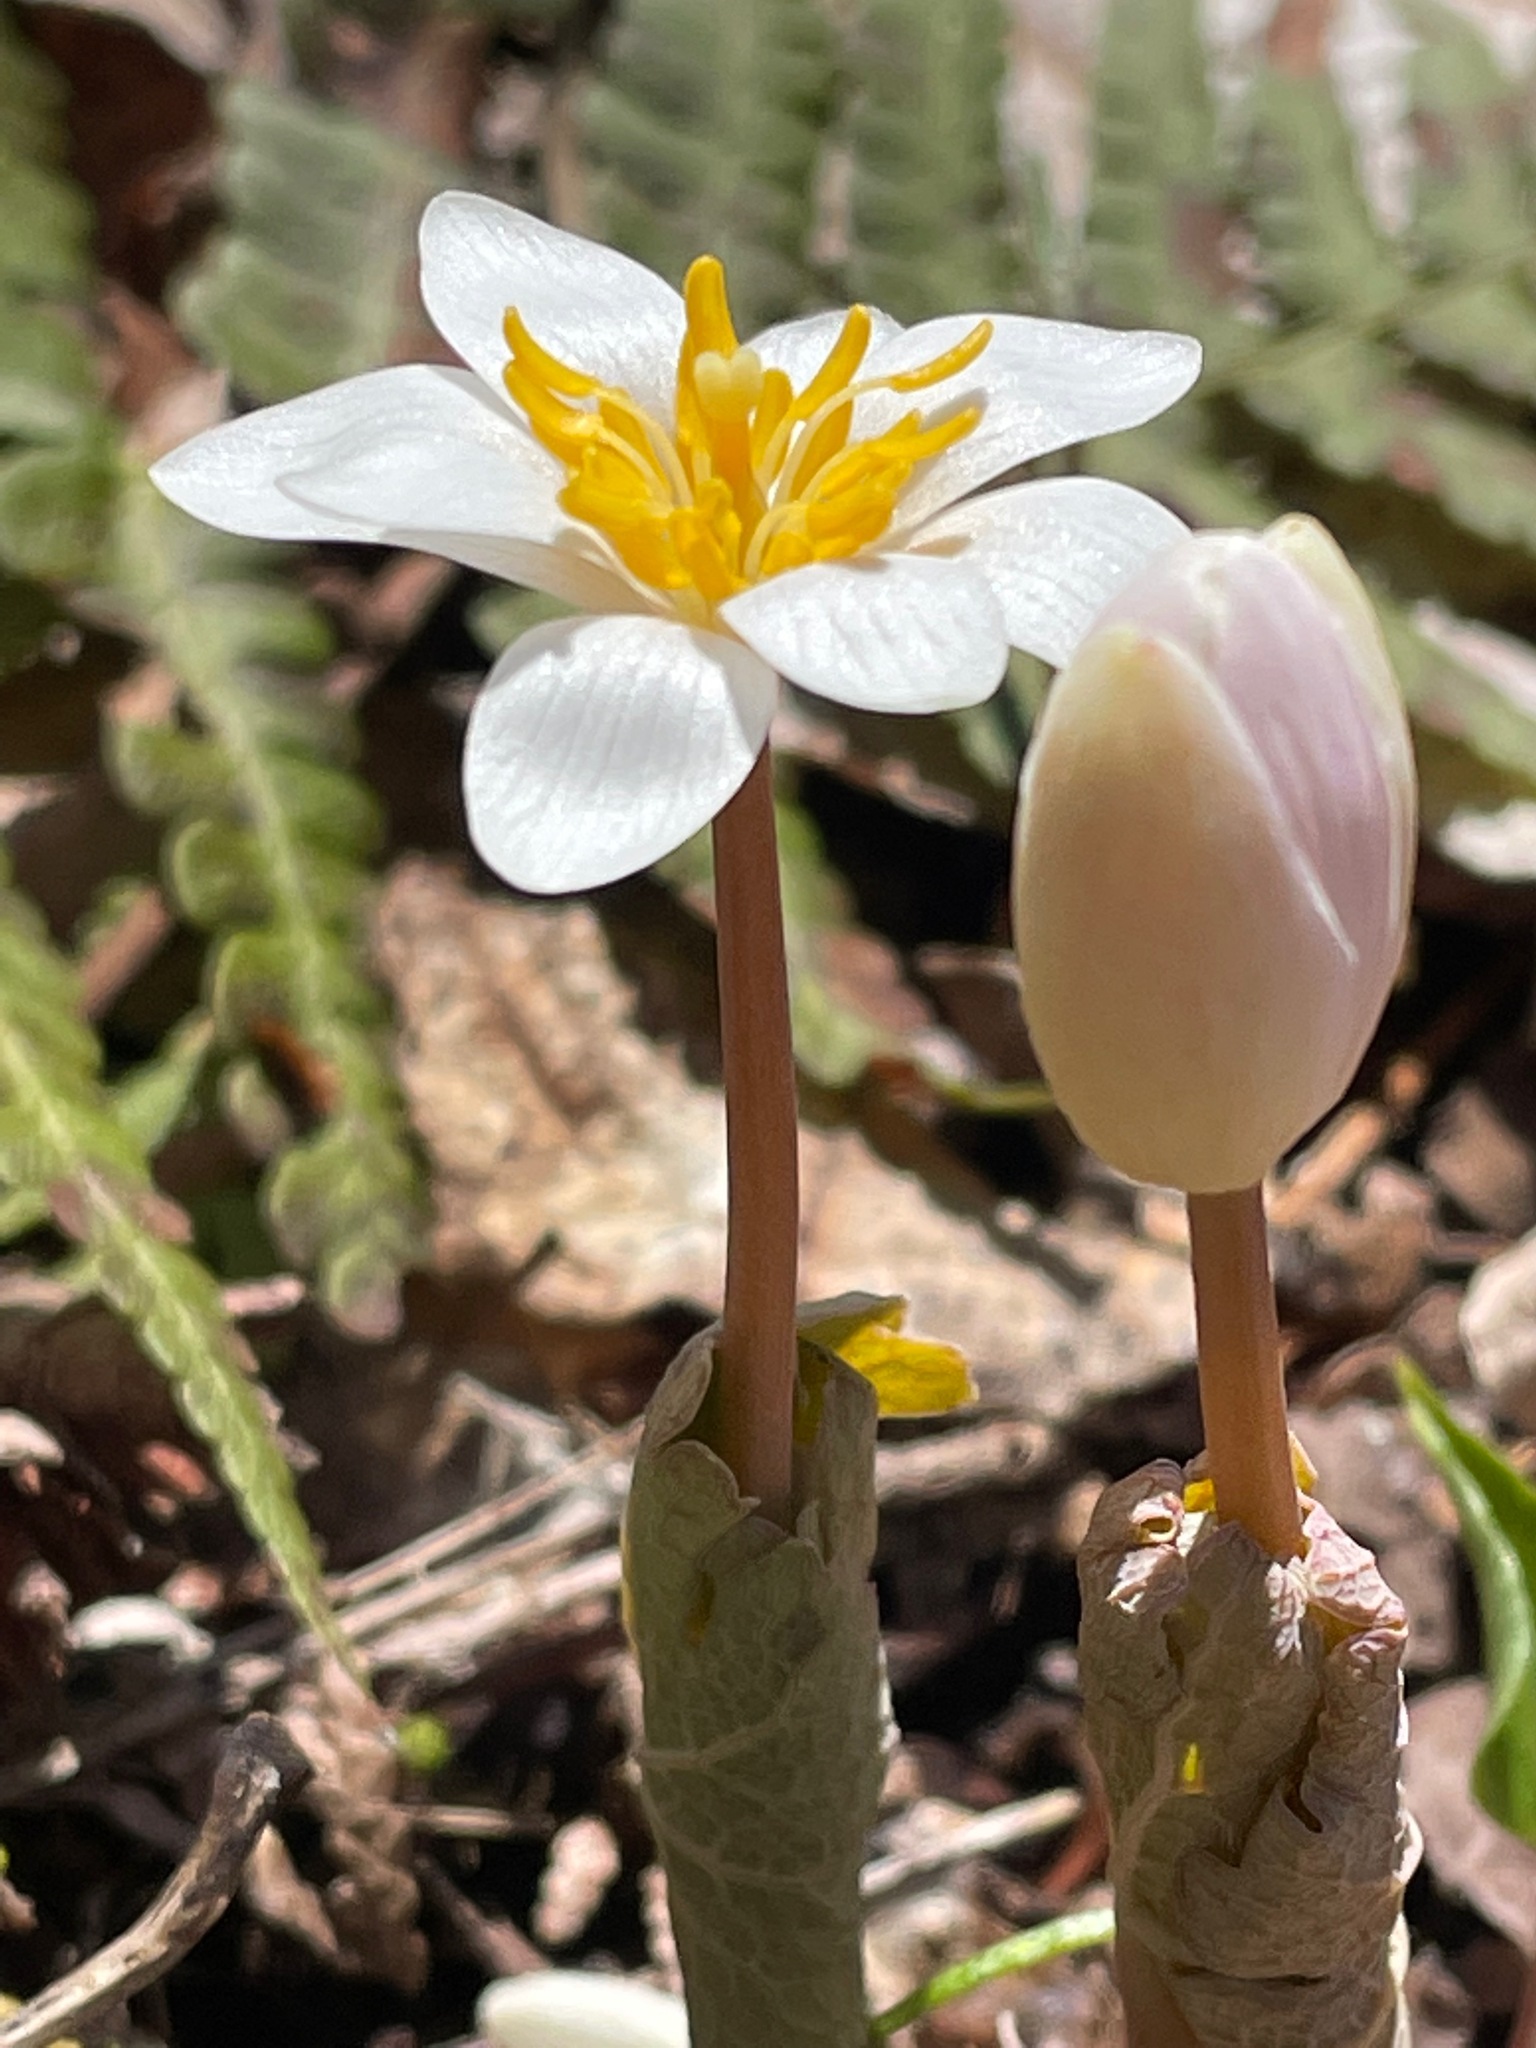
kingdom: Plantae
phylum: Tracheophyta
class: Magnoliopsida
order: Ranunculales
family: Papaveraceae
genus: Sanguinaria
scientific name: Sanguinaria canadensis
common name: Bloodroot
